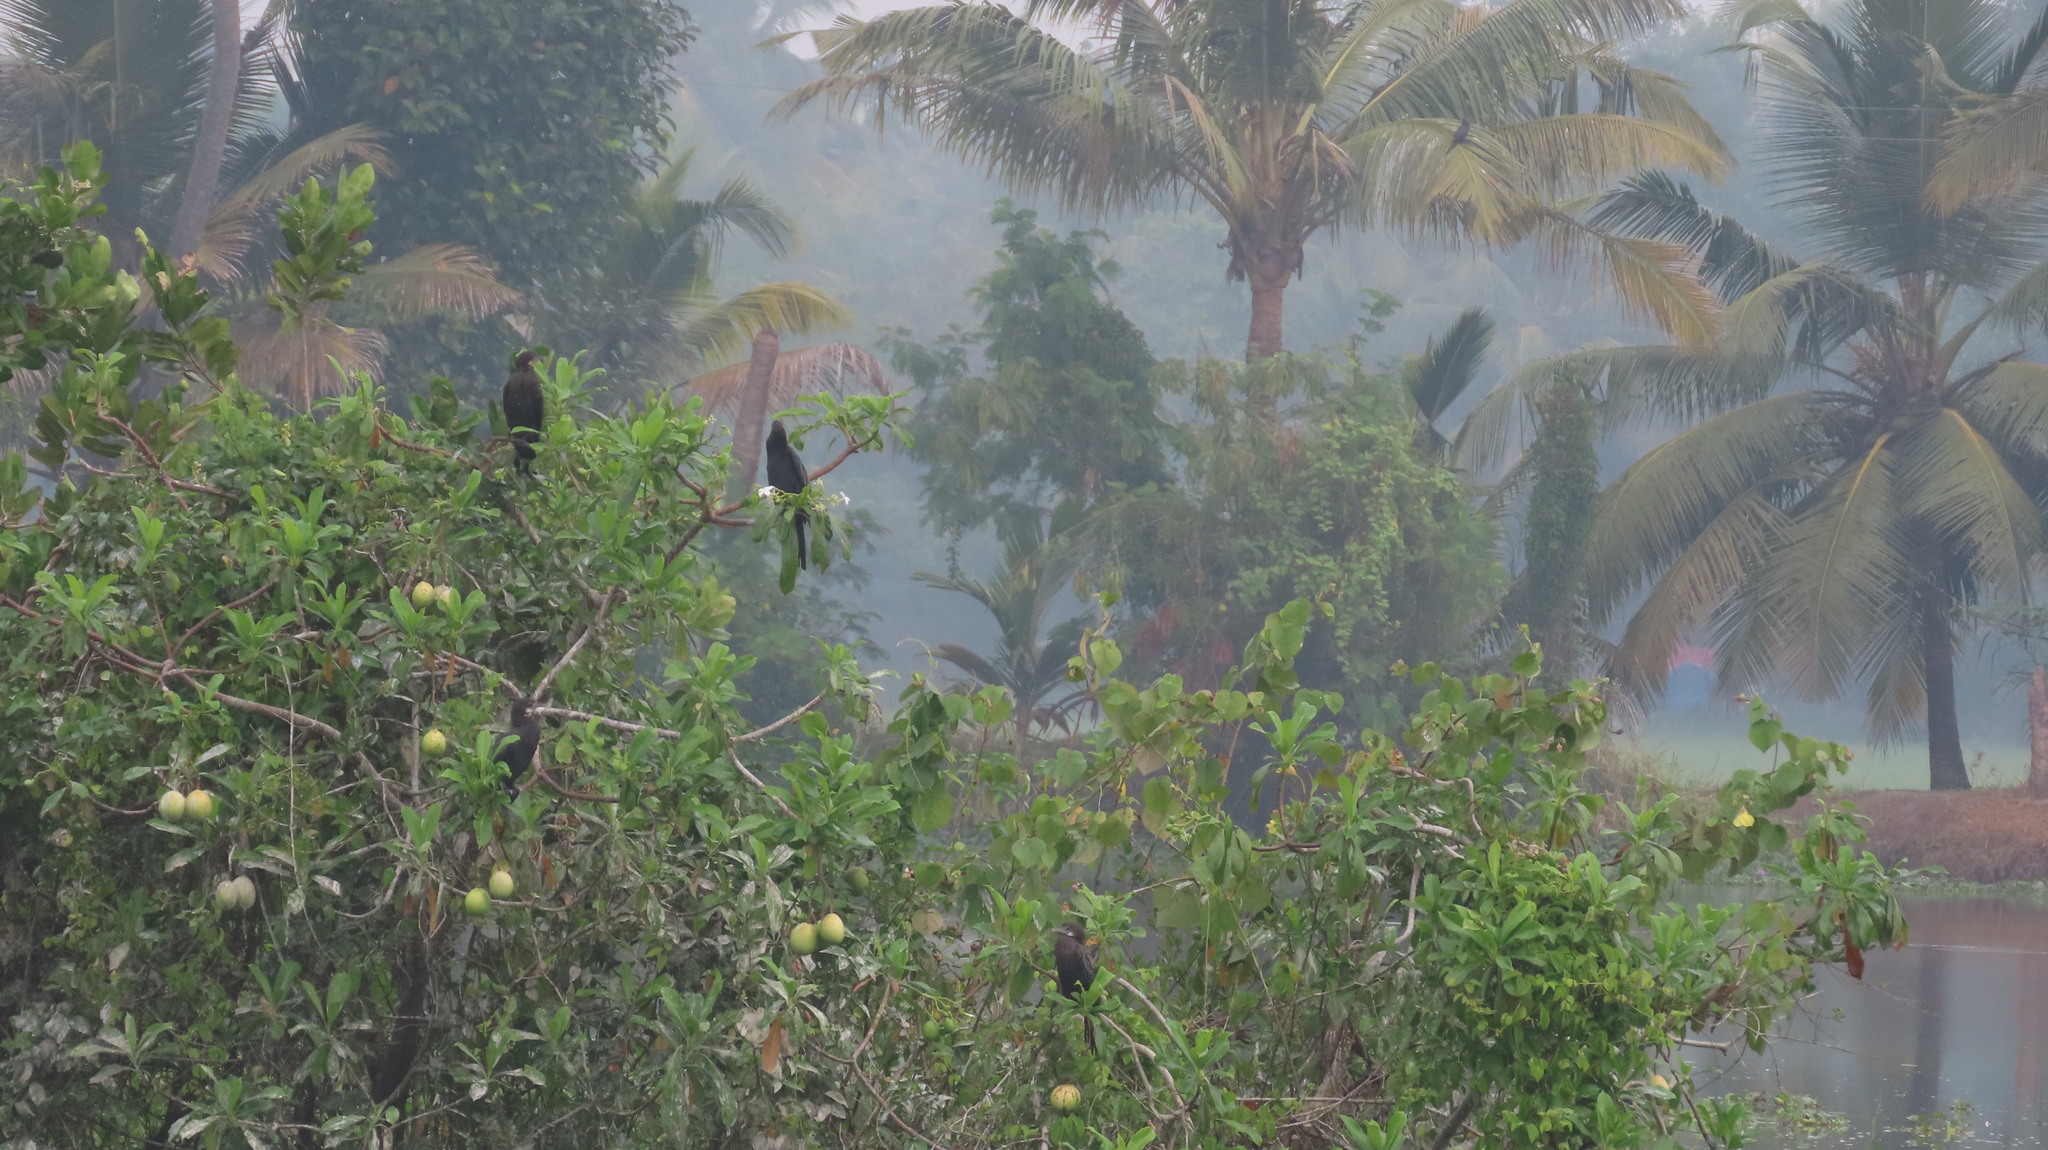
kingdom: Animalia
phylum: Chordata
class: Aves
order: Suliformes
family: Phalacrocoracidae
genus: Microcarbo
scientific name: Microcarbo niger
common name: Little cormorant
